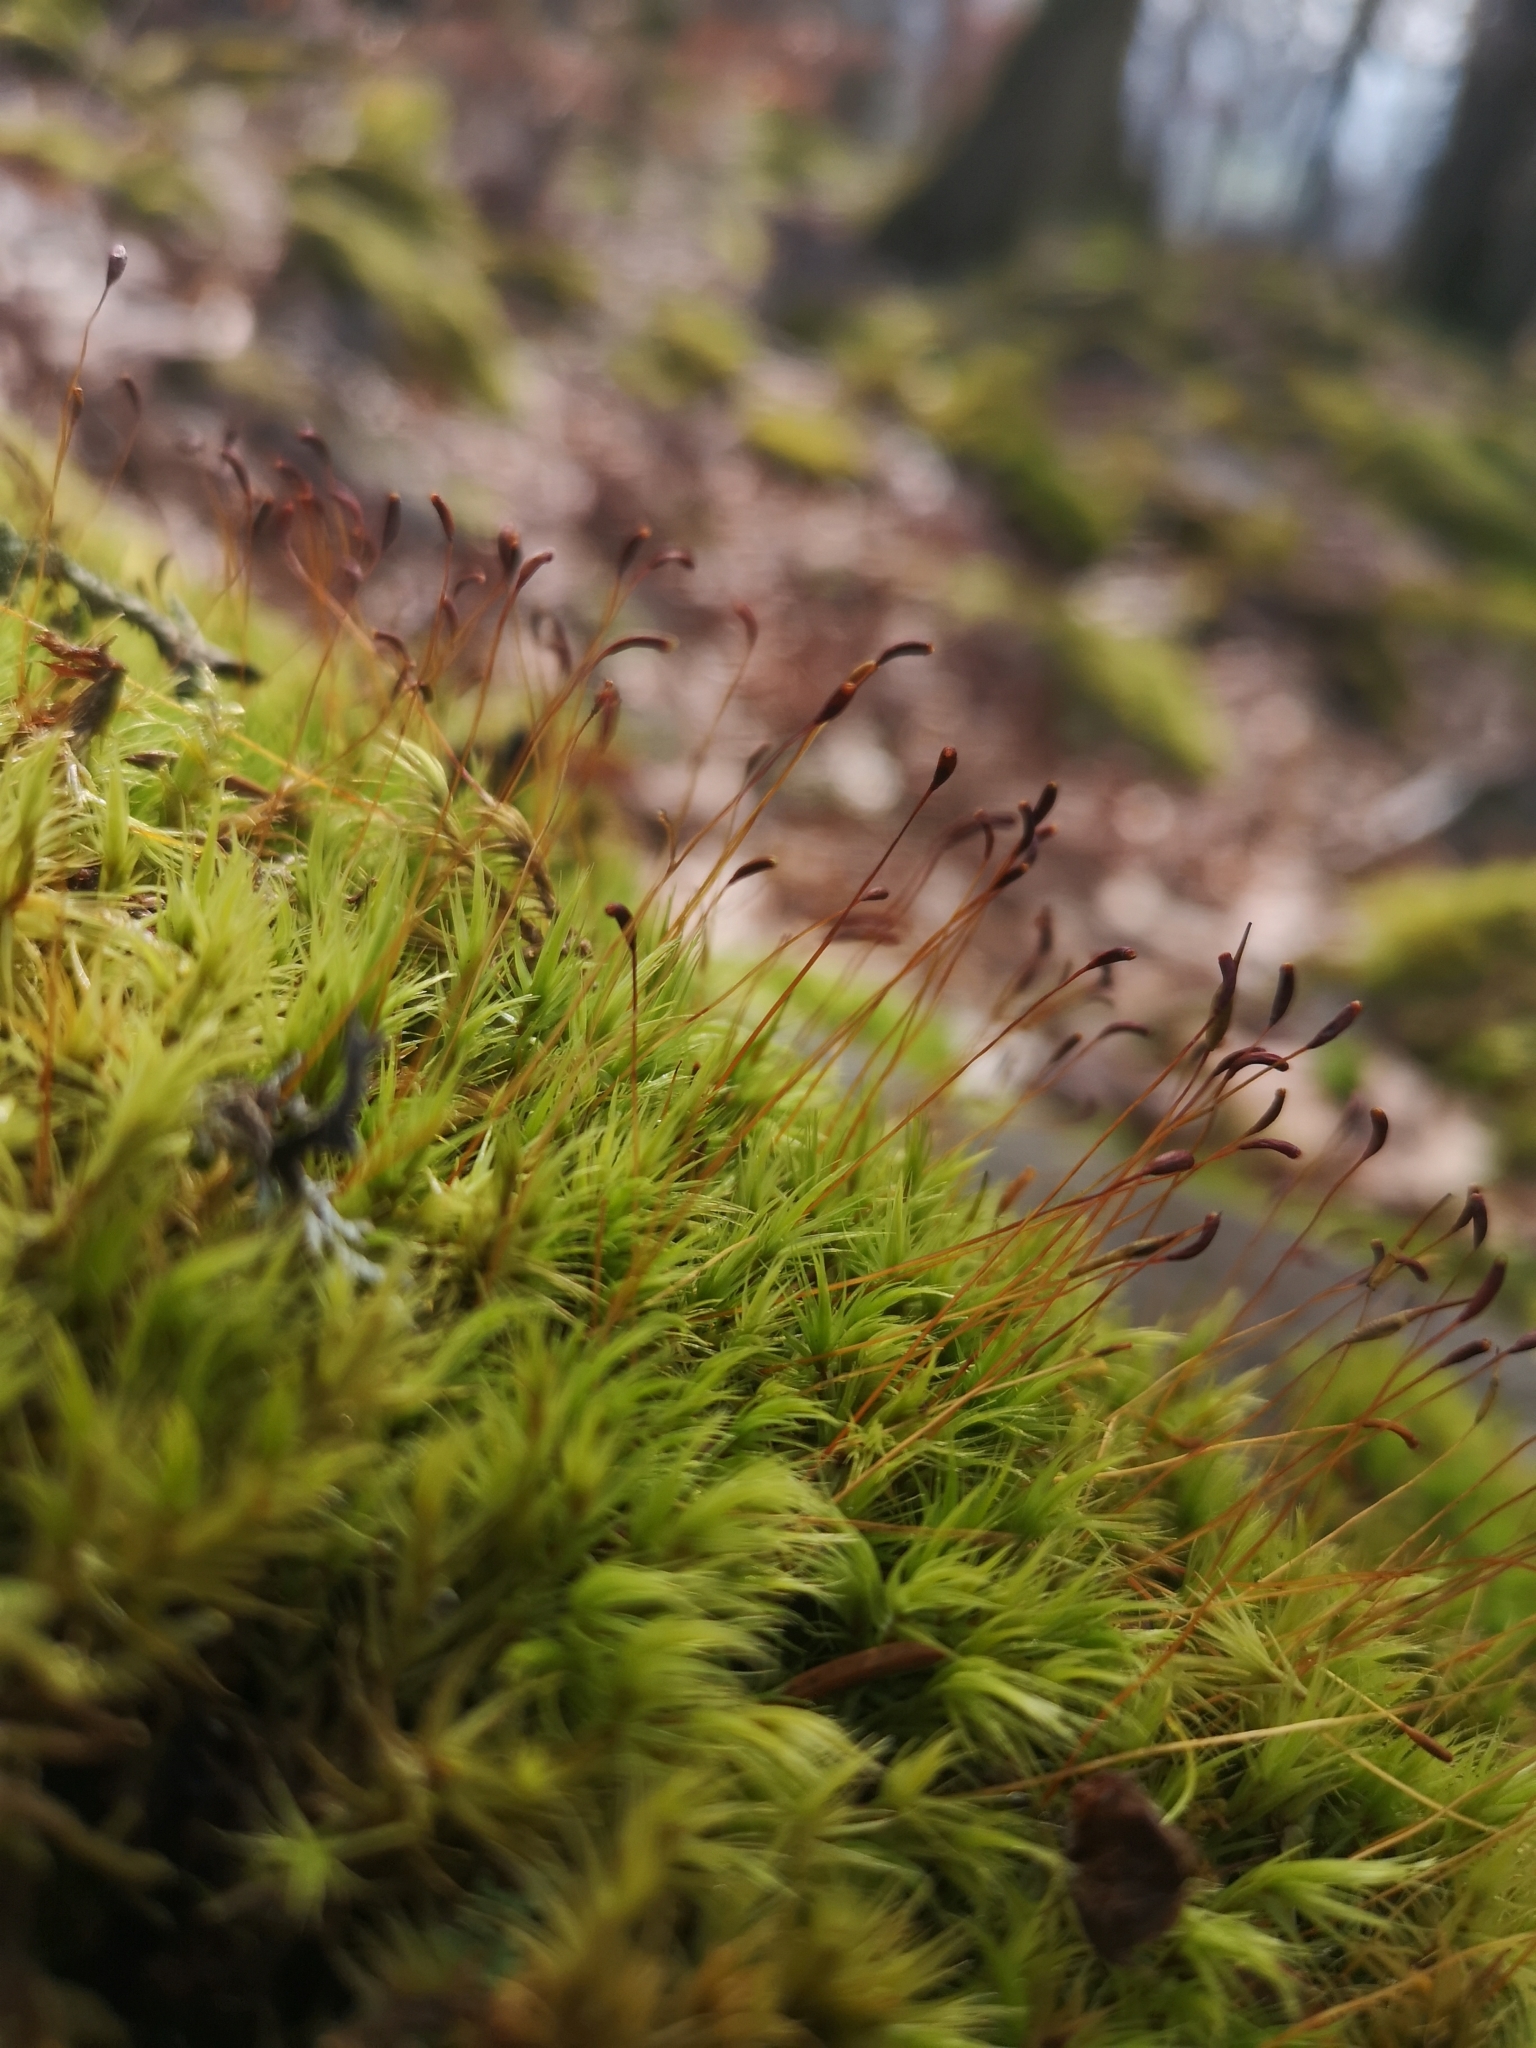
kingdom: Plantae
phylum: Bryophyta
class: Bryopsida
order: Dicranales
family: Dicranaceae
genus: Dicranum
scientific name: Dicranum scoparium
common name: Broom fork-moss
